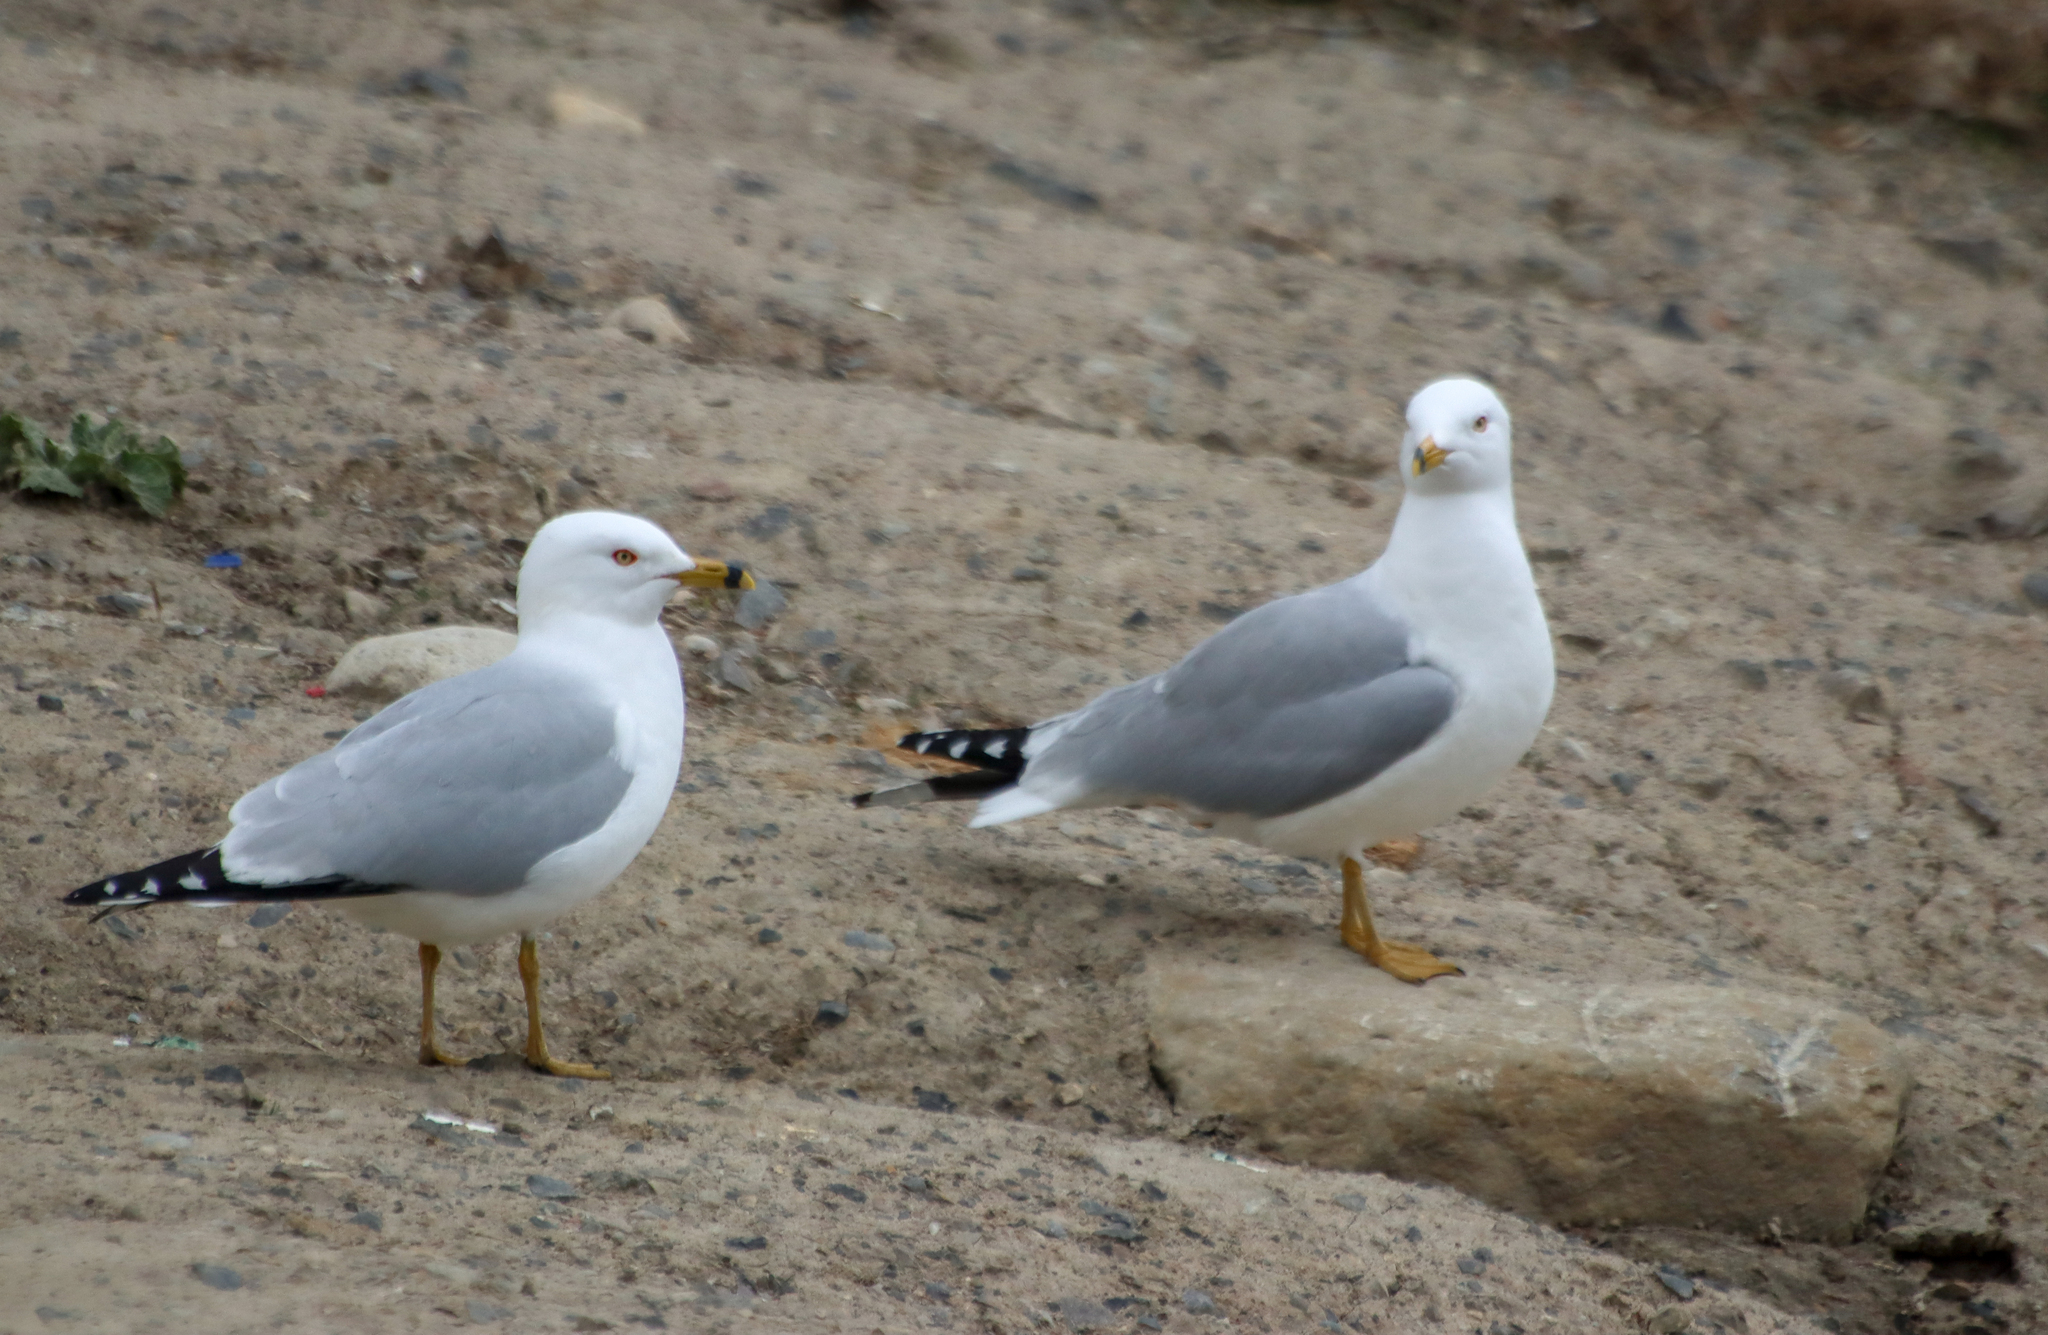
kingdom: Animalia
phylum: Chordata
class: Aves
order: Charadriiformes
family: Laridae
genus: Larus
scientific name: Larus delawarensis
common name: Ring-billed gull
